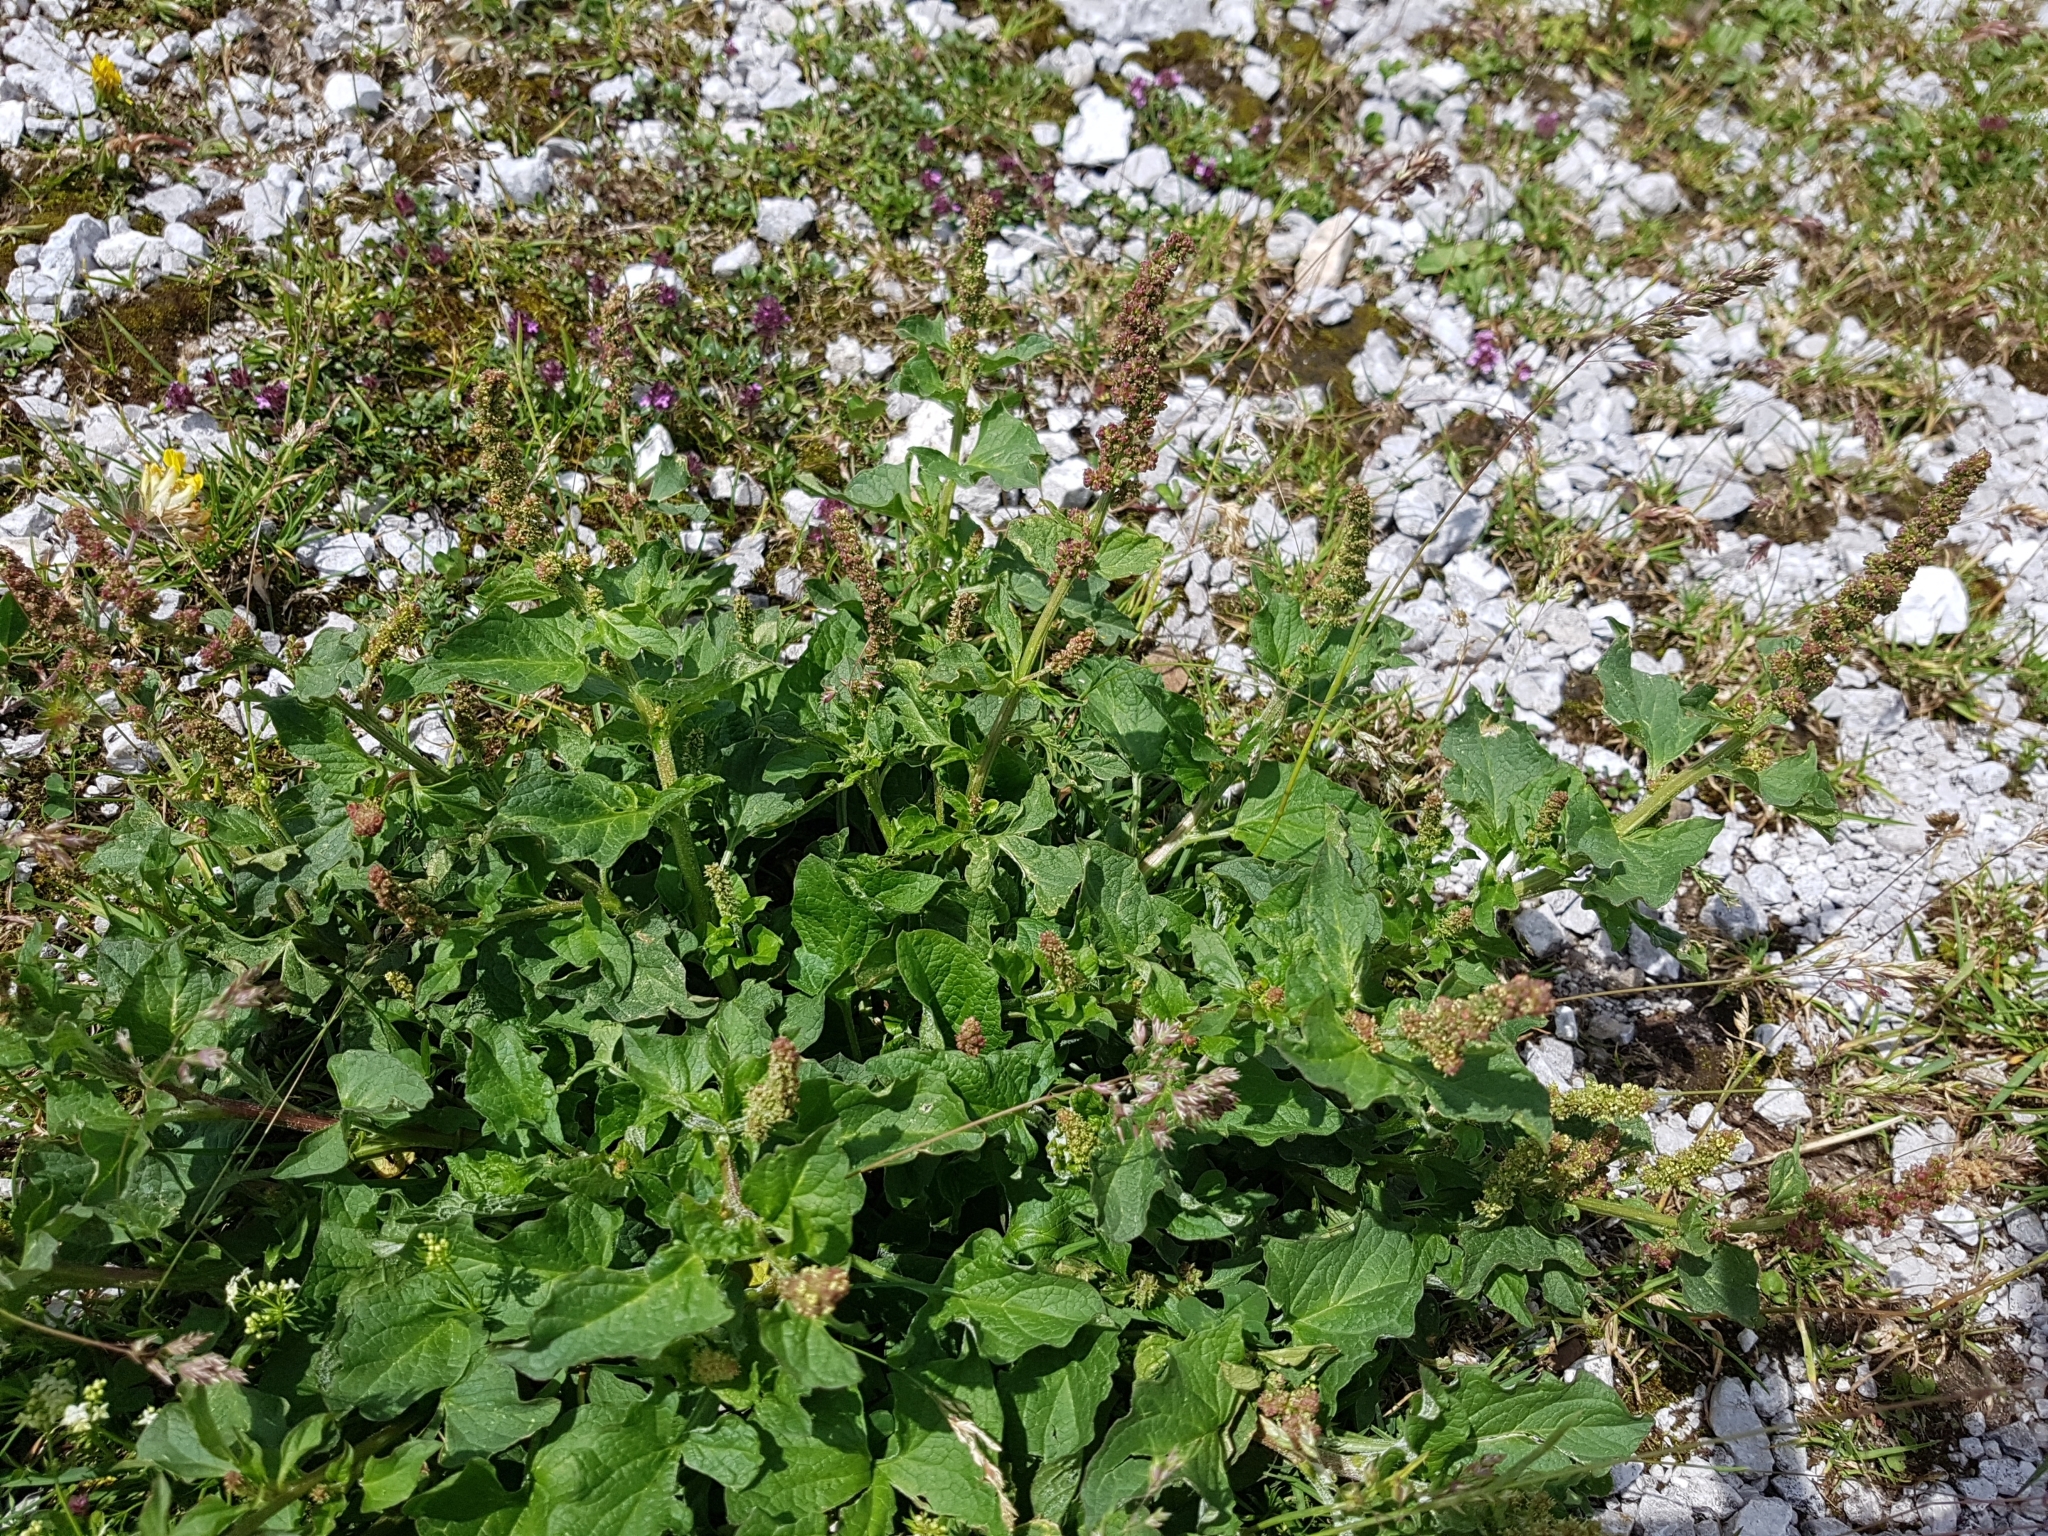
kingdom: Plantae
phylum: Tracheophyta
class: Magnoliopsida
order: Caryophyllales
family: Amaranthaceae
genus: Blitum
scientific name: Blitum bonus-henricus
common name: Good king henry
